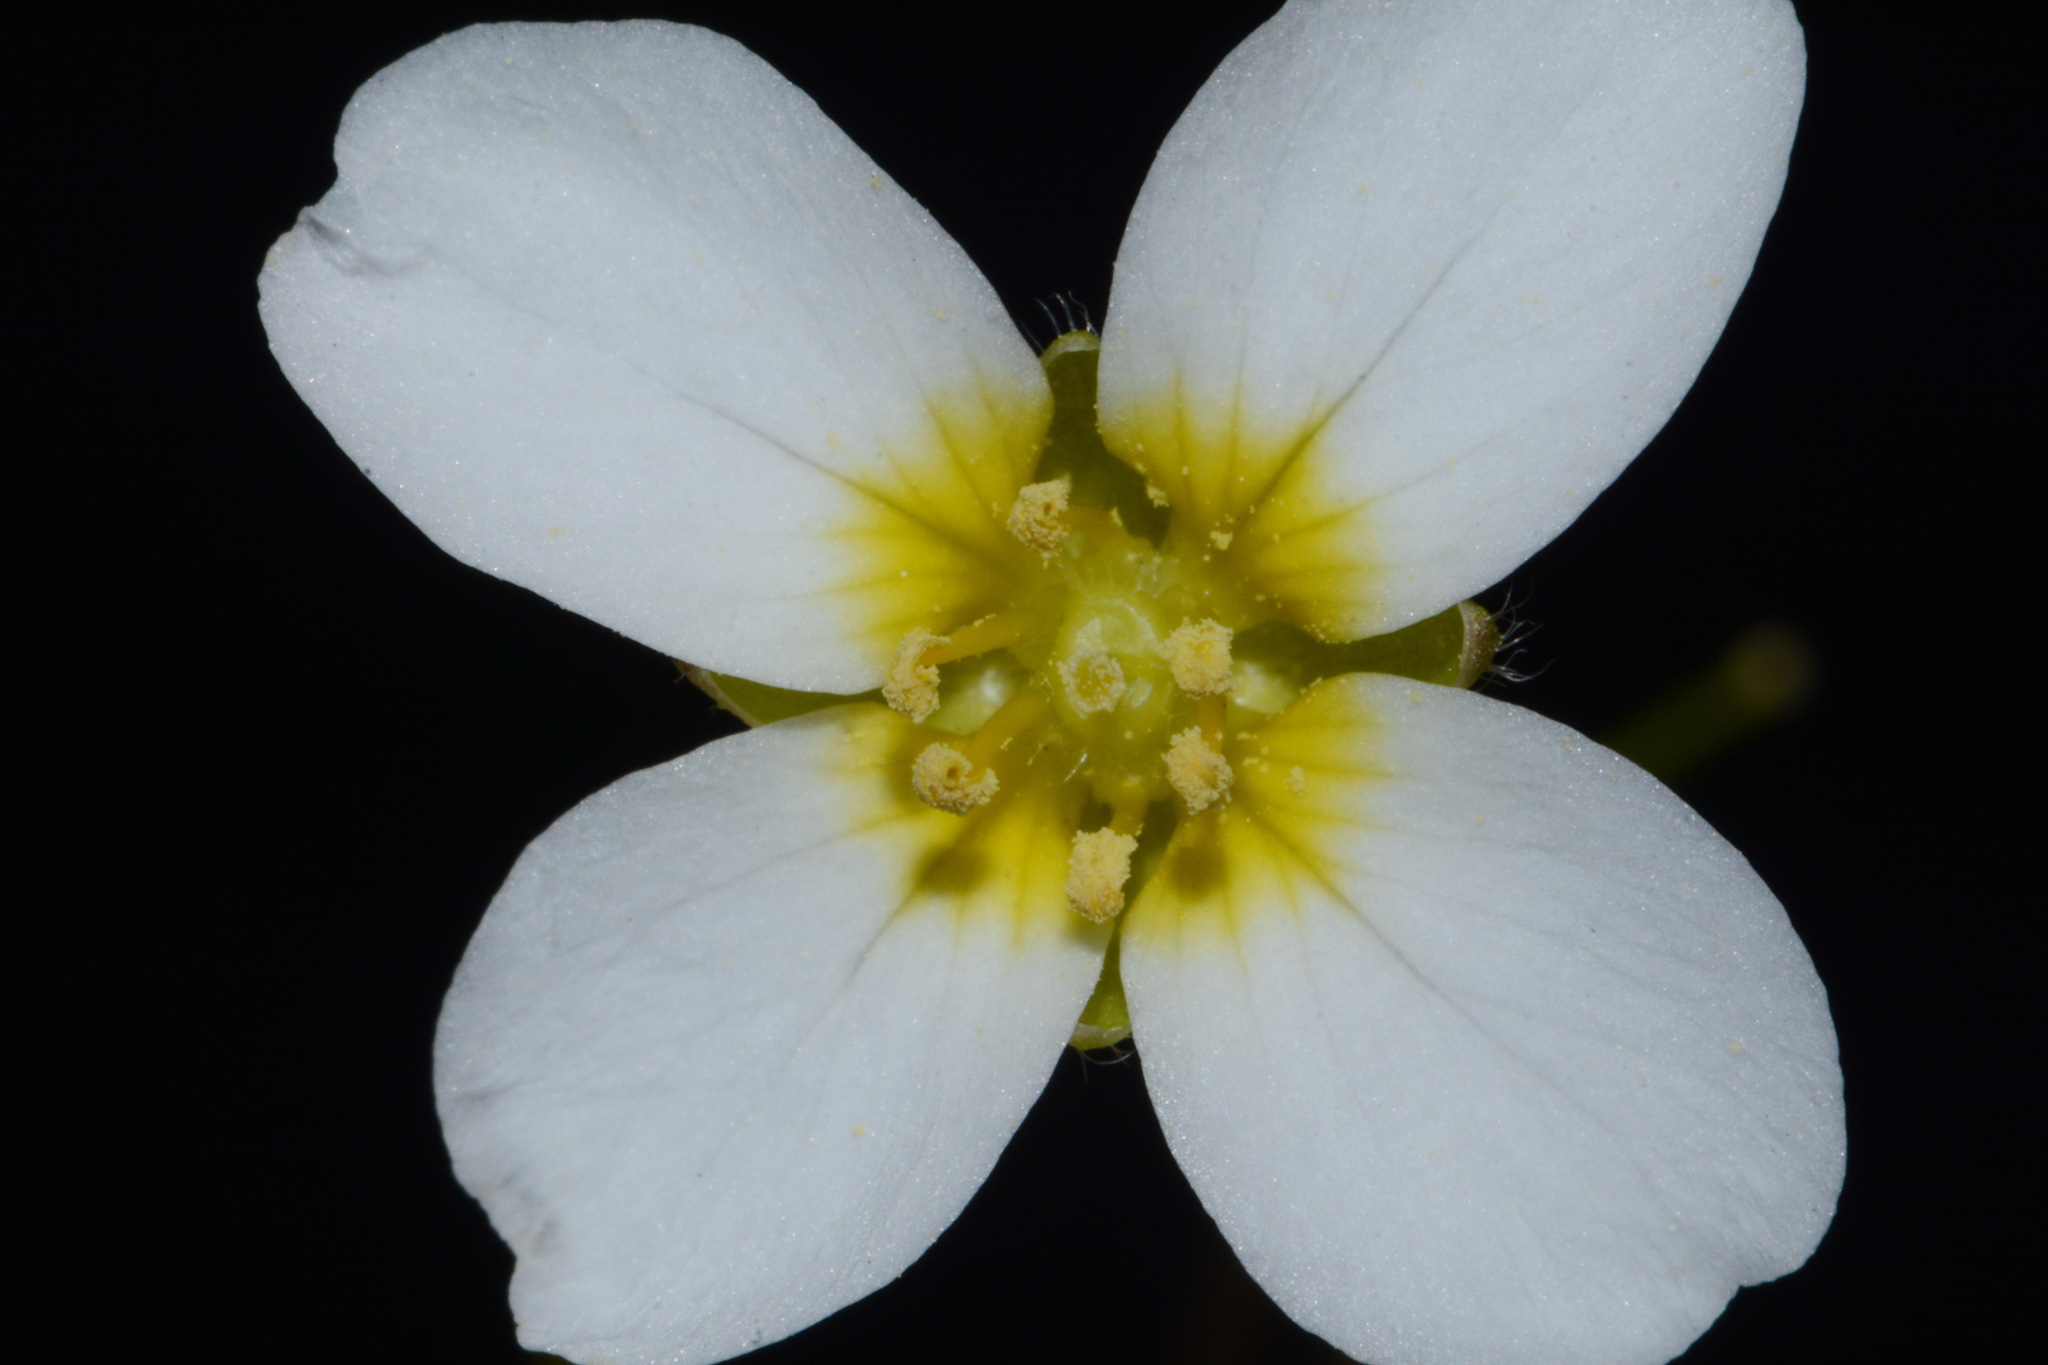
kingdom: Plantae
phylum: Tracheophyta
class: Magnoliopsida
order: Brassicales
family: Brassicaceae
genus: Paysonia
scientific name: Paysonia perforata
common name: Spring creek bladderpod
